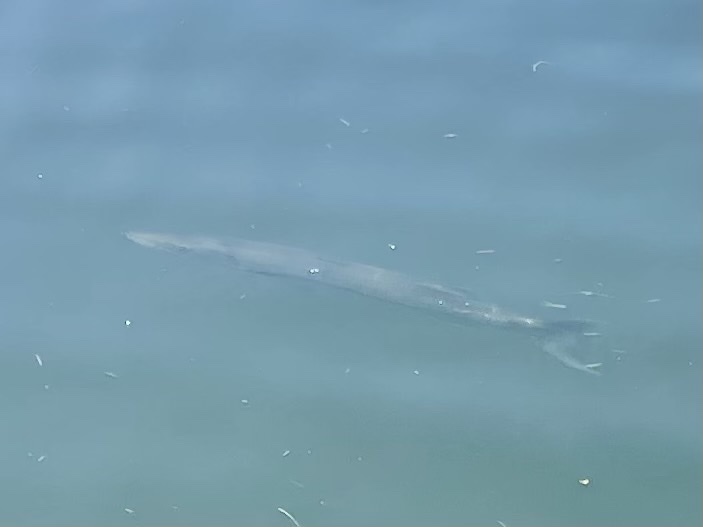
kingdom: Animalia
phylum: Chordata
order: Perciformes
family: Sphyraenidae
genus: Sphyraena
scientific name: Sphyraena barracuda
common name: Great barracuda
